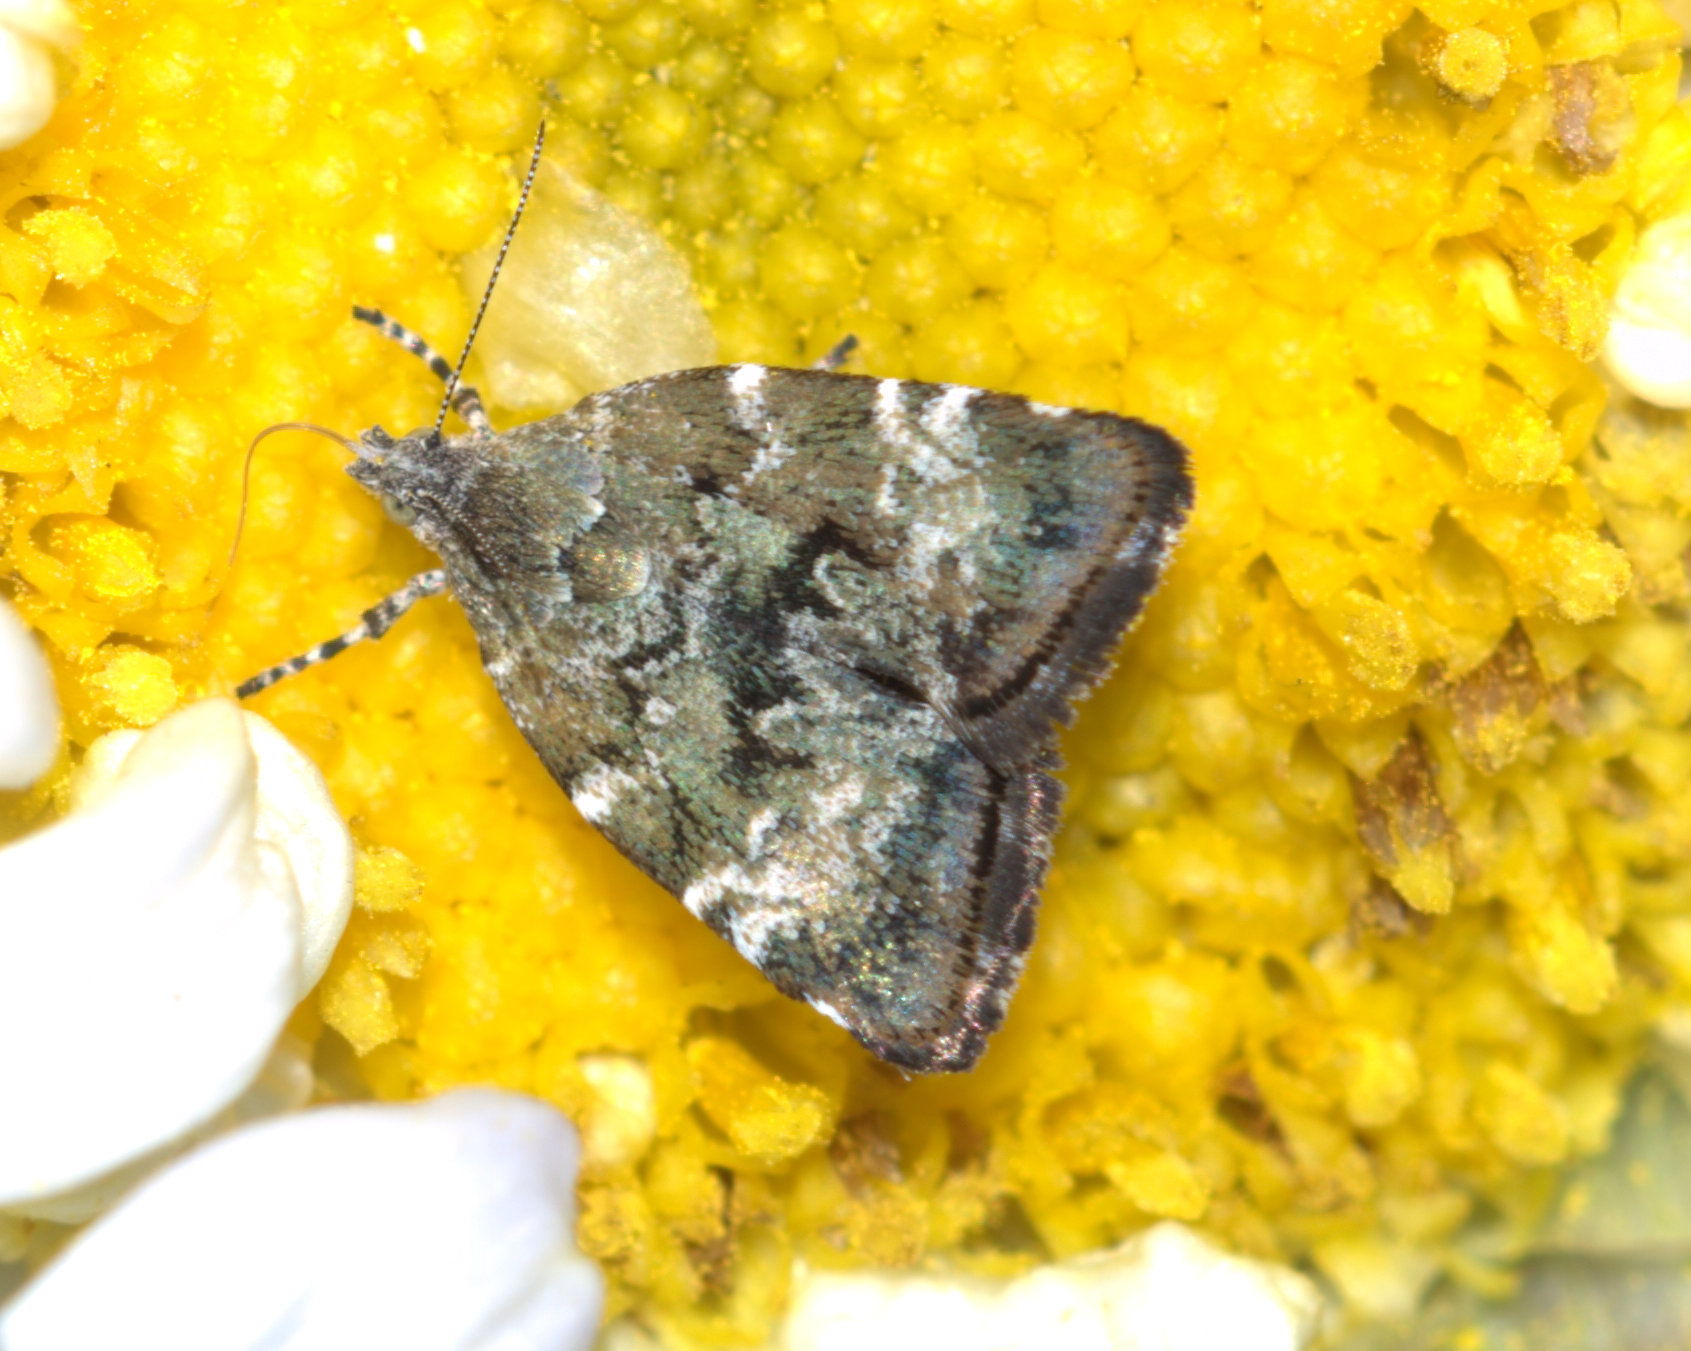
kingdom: Animalia
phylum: Arthropoda
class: Insecta
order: Lepidoptera
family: Choreutidae
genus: Choreutis
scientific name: Choreutis diana
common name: Inverness twitcher
